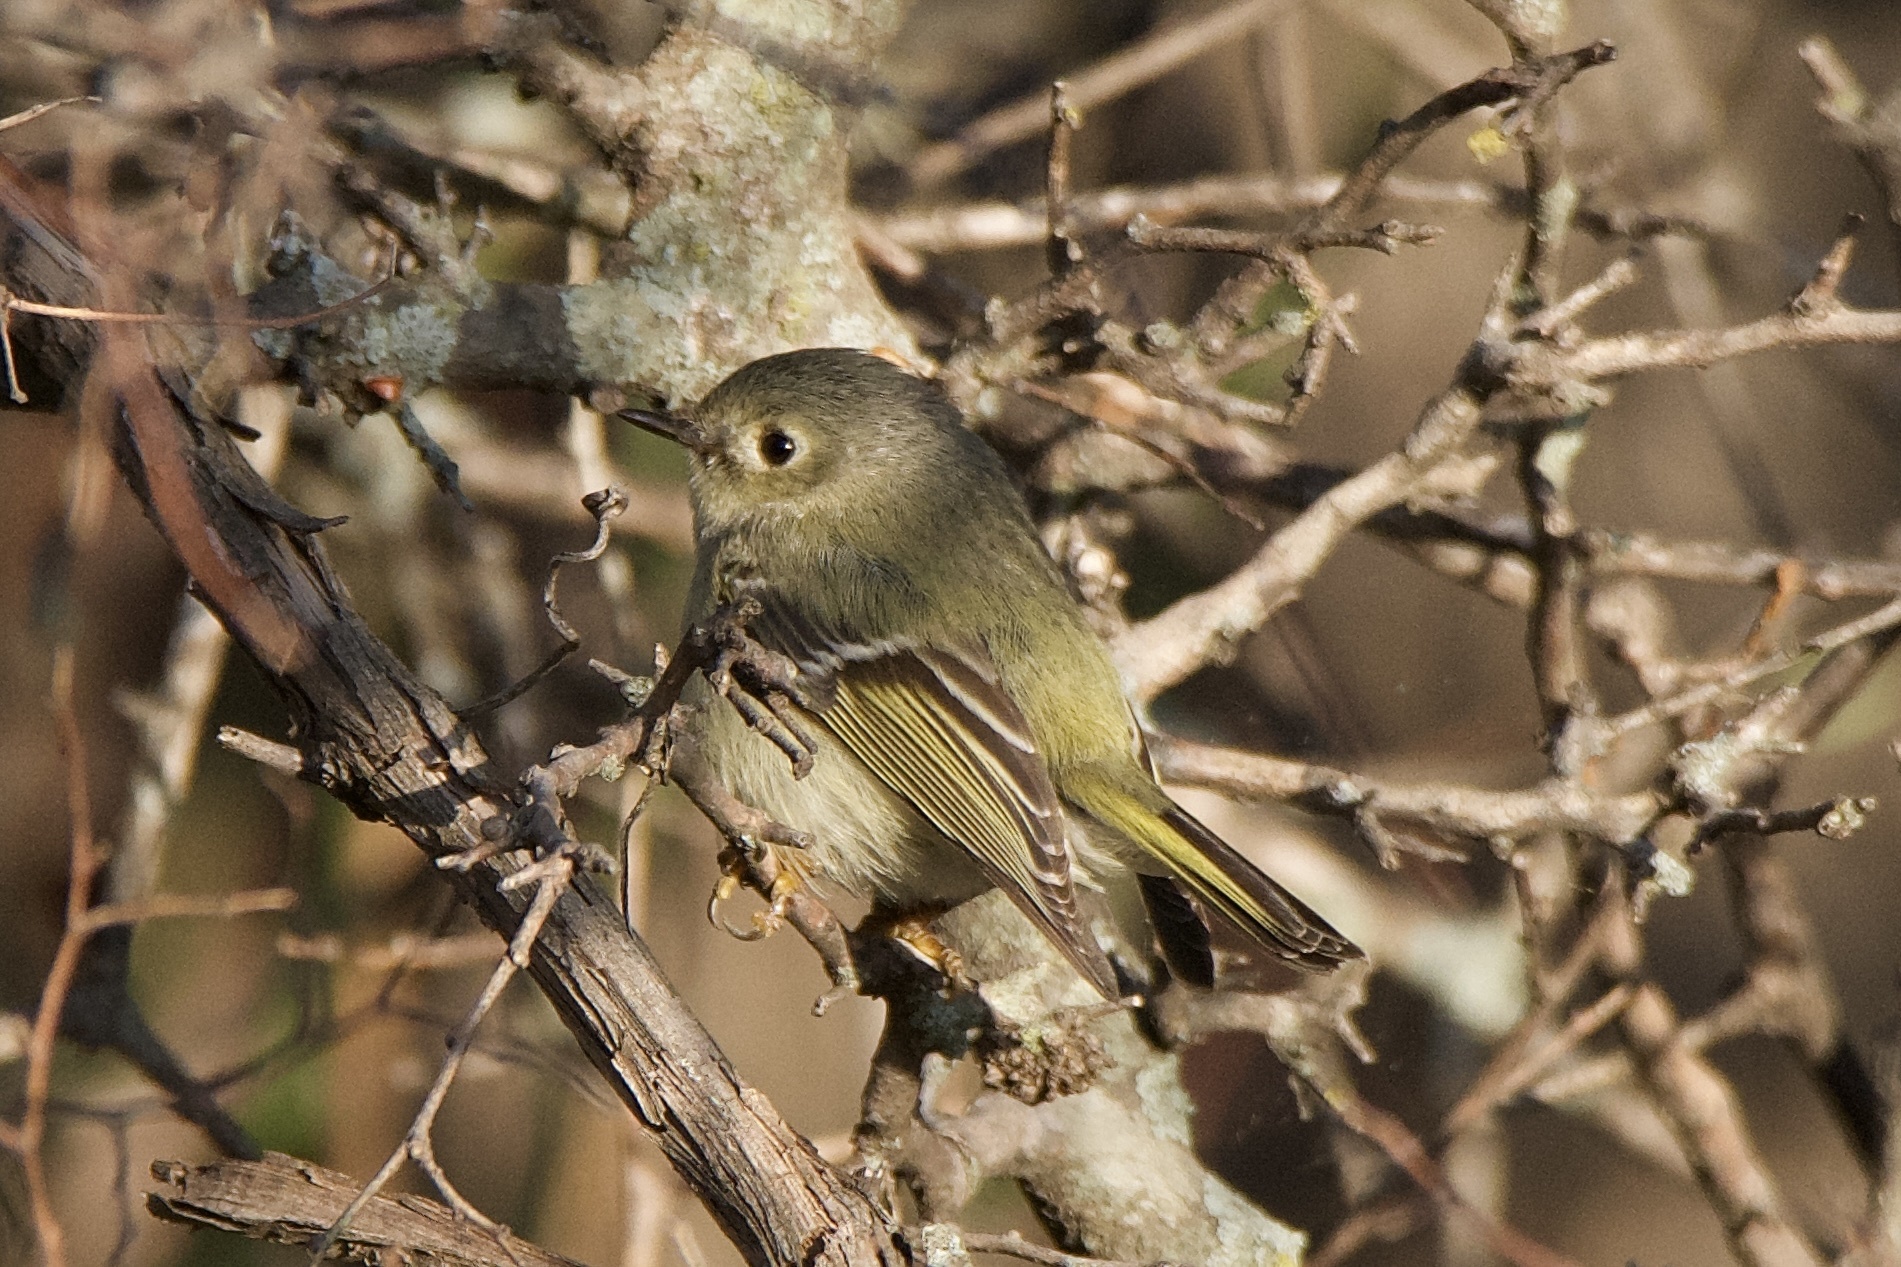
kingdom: Animalia
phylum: Chordata
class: Aves
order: Passeriformes
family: Regulidae
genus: Regulus
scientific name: Regulus calendula
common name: Ruby-crowned kinglet
